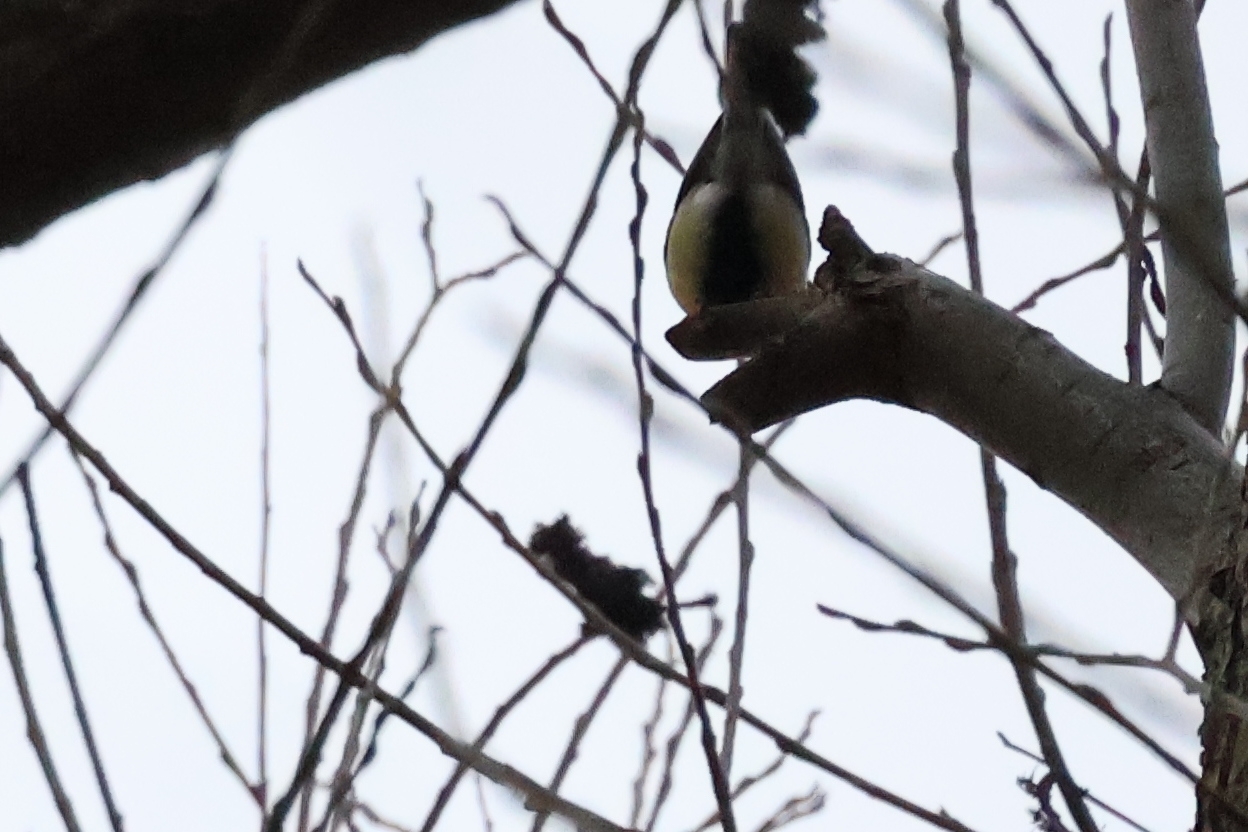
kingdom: Animalia
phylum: Chordata
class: Aves
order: Passeriformes
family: Paridae
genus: Parus
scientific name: Parus major
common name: Great tit
